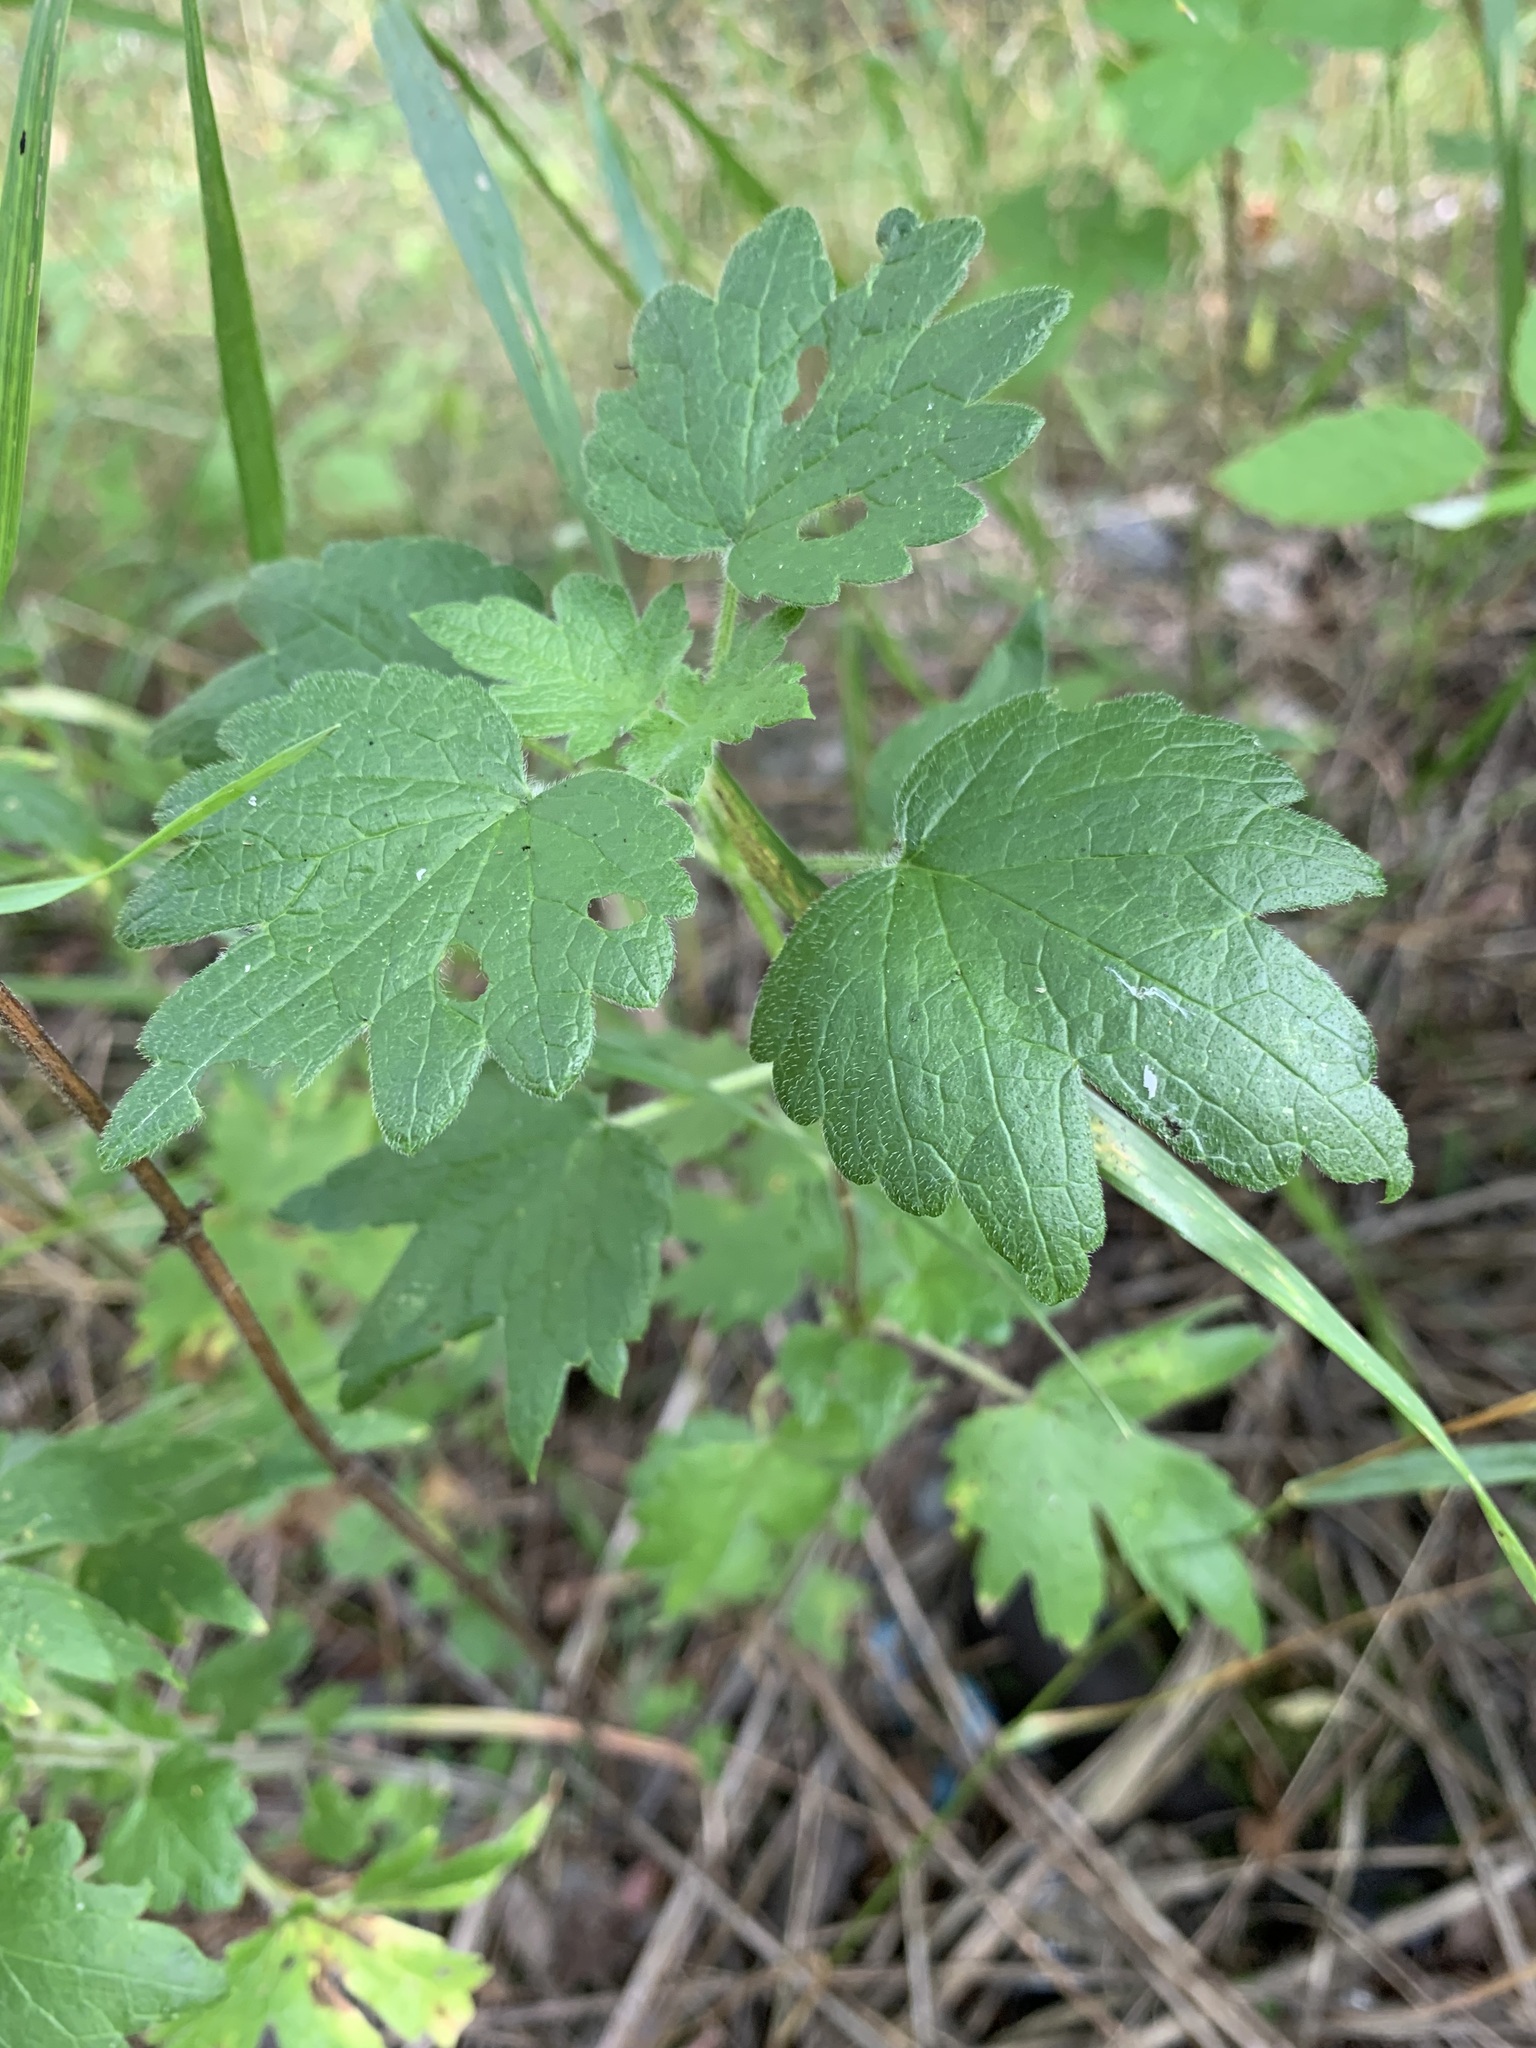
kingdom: Plantae
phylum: Tracheophyta
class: Magnoliopsida
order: Lamiales
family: Lamiaceae
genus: Leonurus
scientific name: Leonurus quinquelobatus
